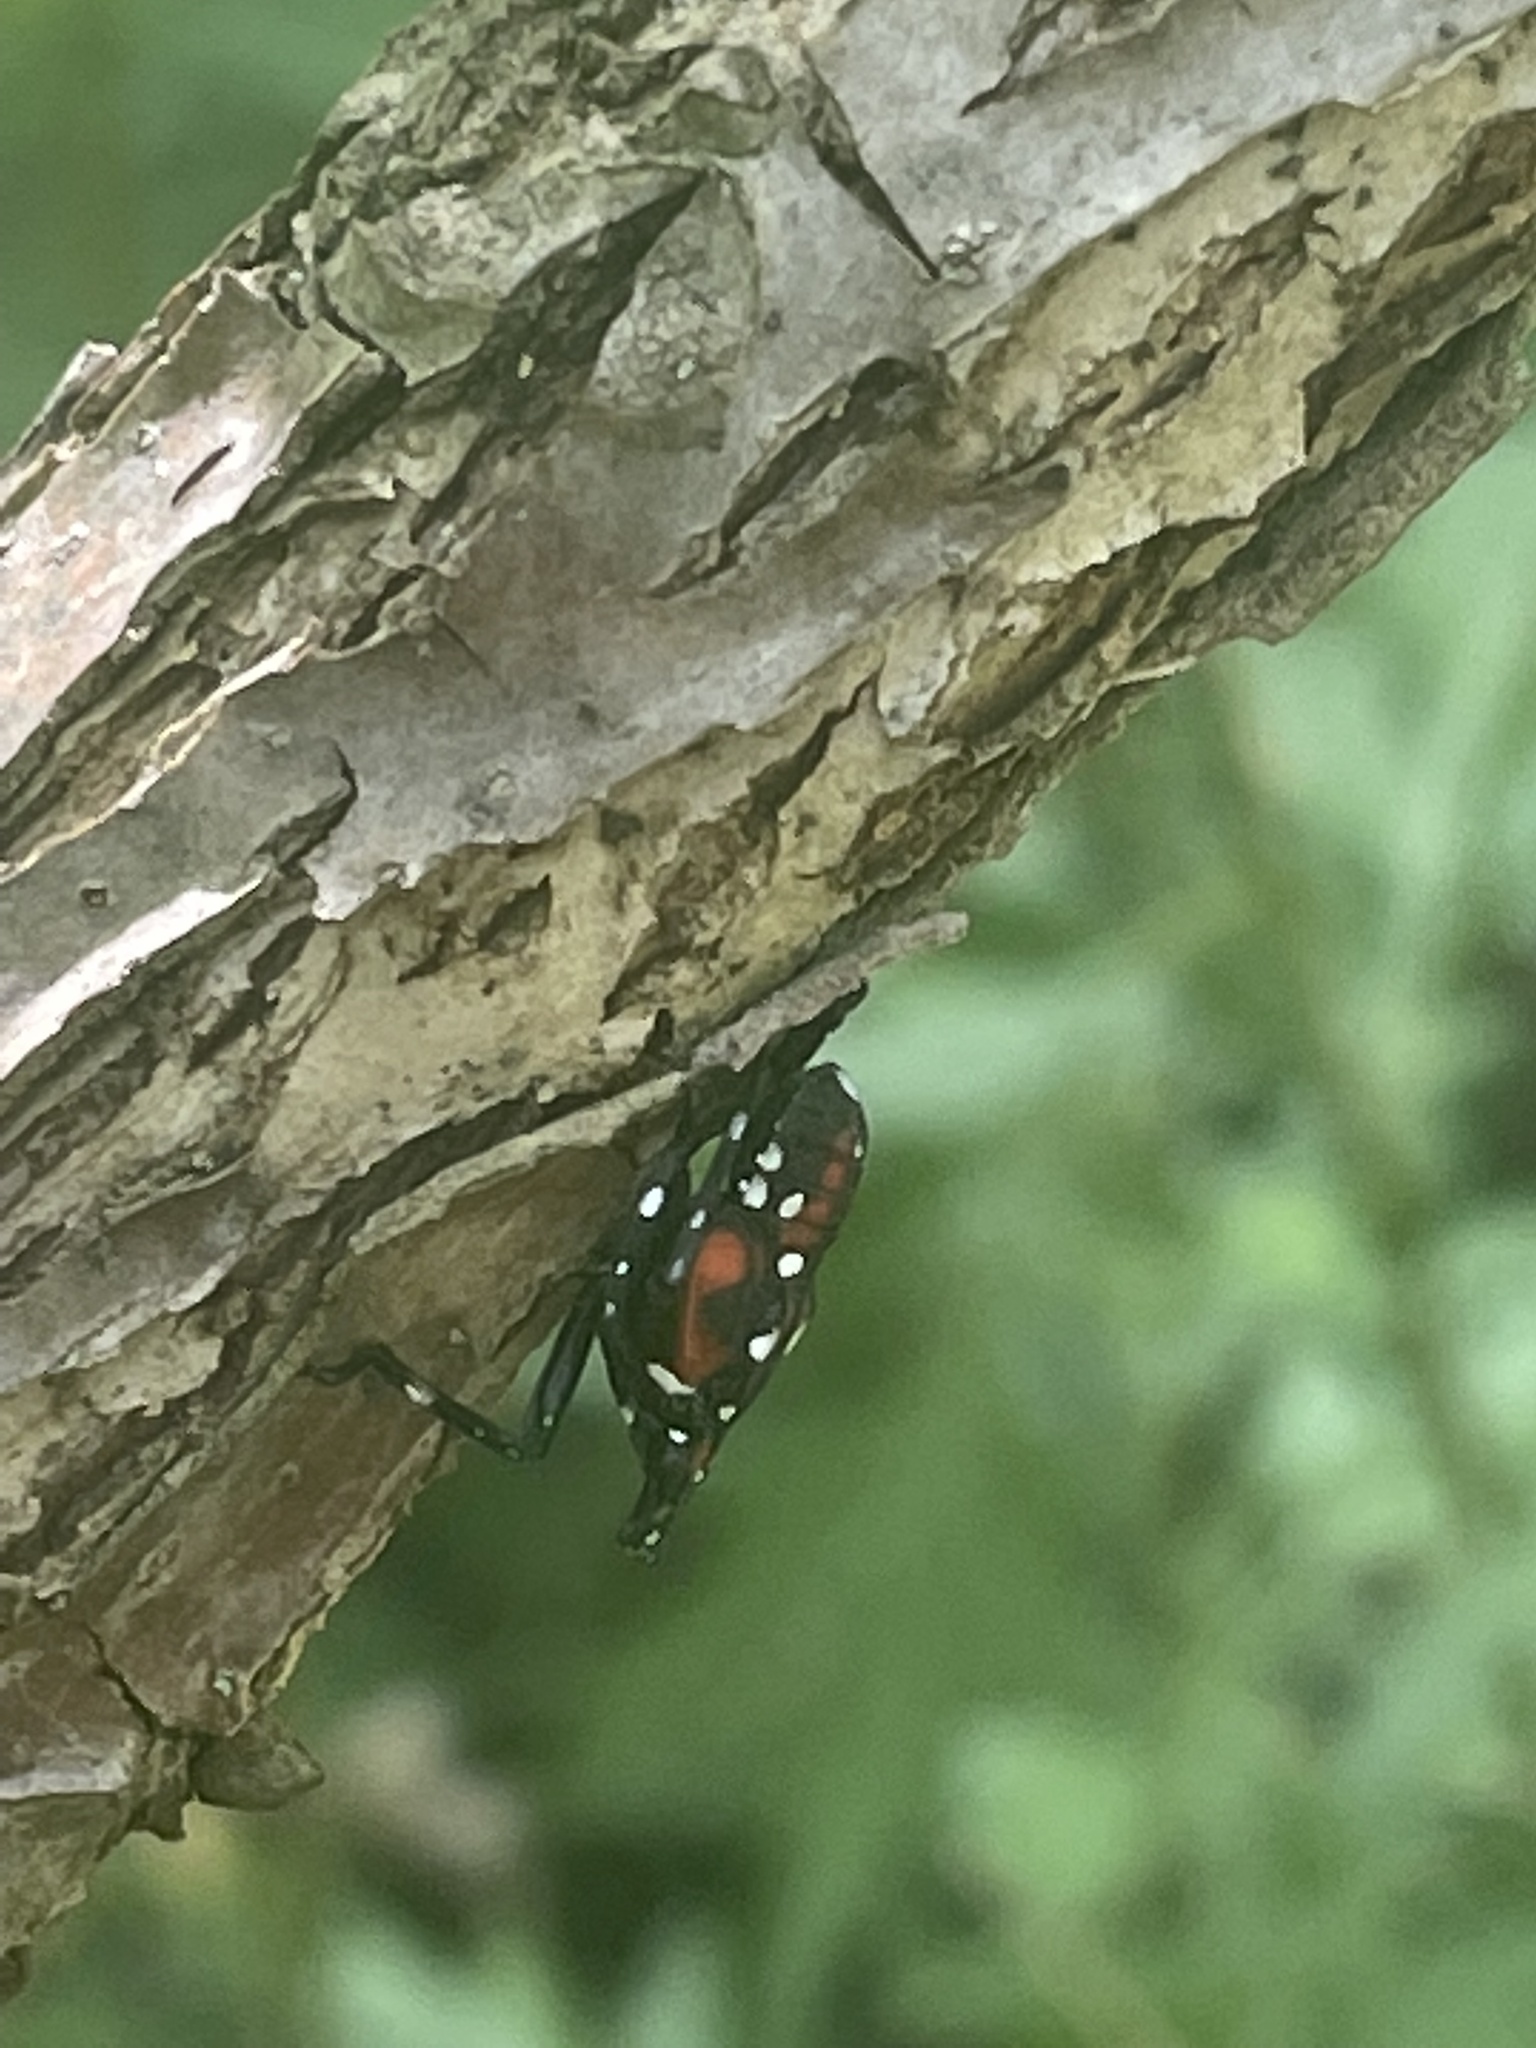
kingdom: Animalia
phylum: Arthropoda
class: Insecta
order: Hemiptera
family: Fulgoridae
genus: Lycorma
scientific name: Lycorma delicatula
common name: Spotted lanternfly
